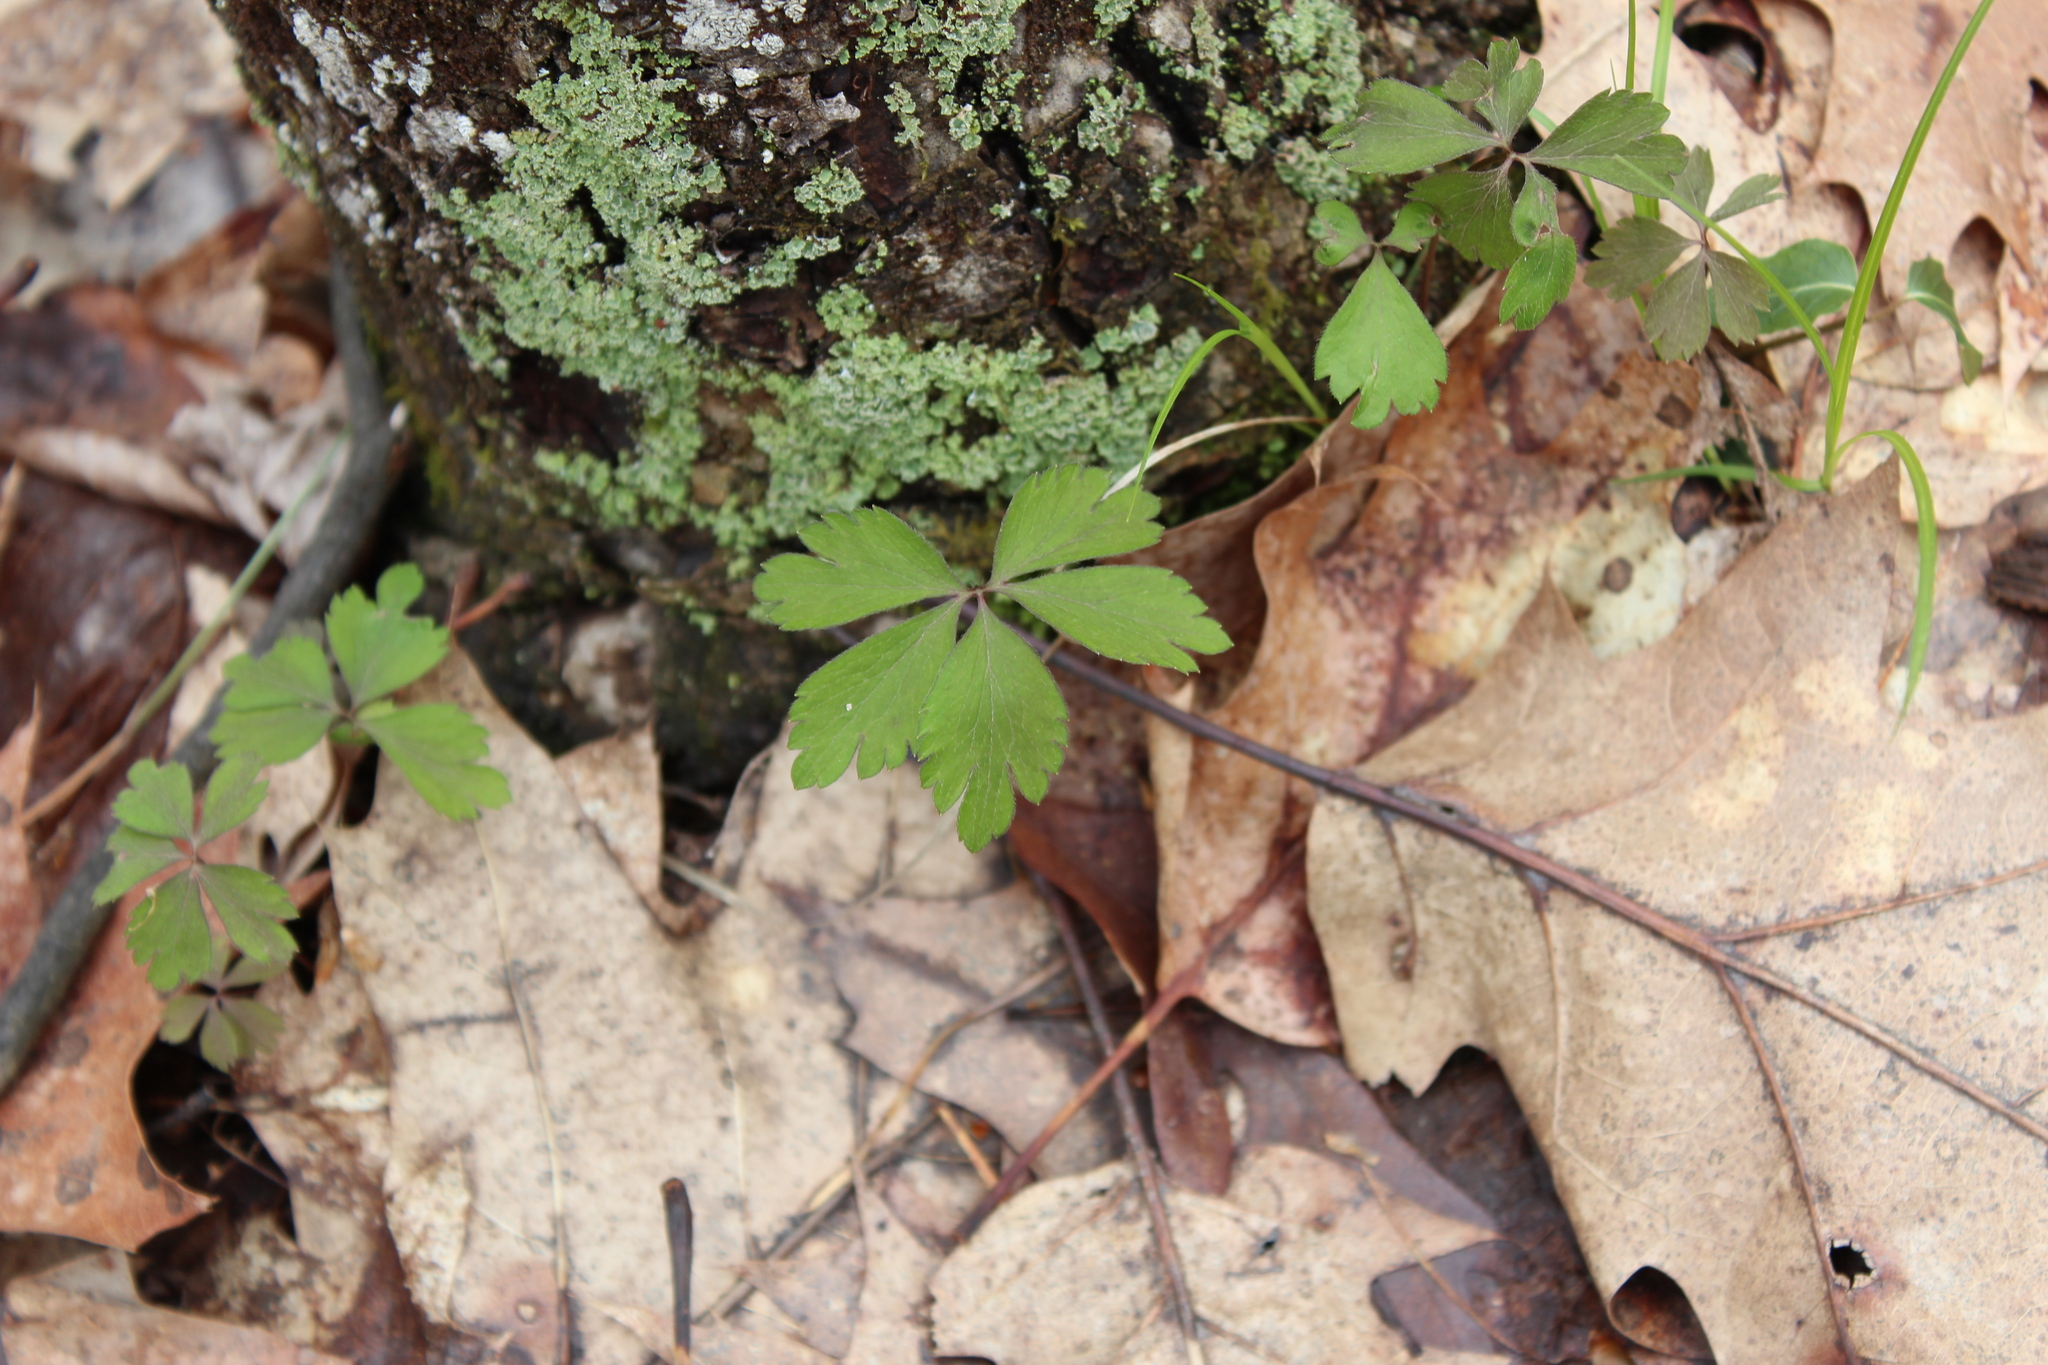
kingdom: Plantae
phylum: Tracheophyta
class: Magnoliopsida
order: Ranunculales
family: Ranunculaceae
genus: Anemone
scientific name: Anemone quinquefolia
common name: Wood anemone
